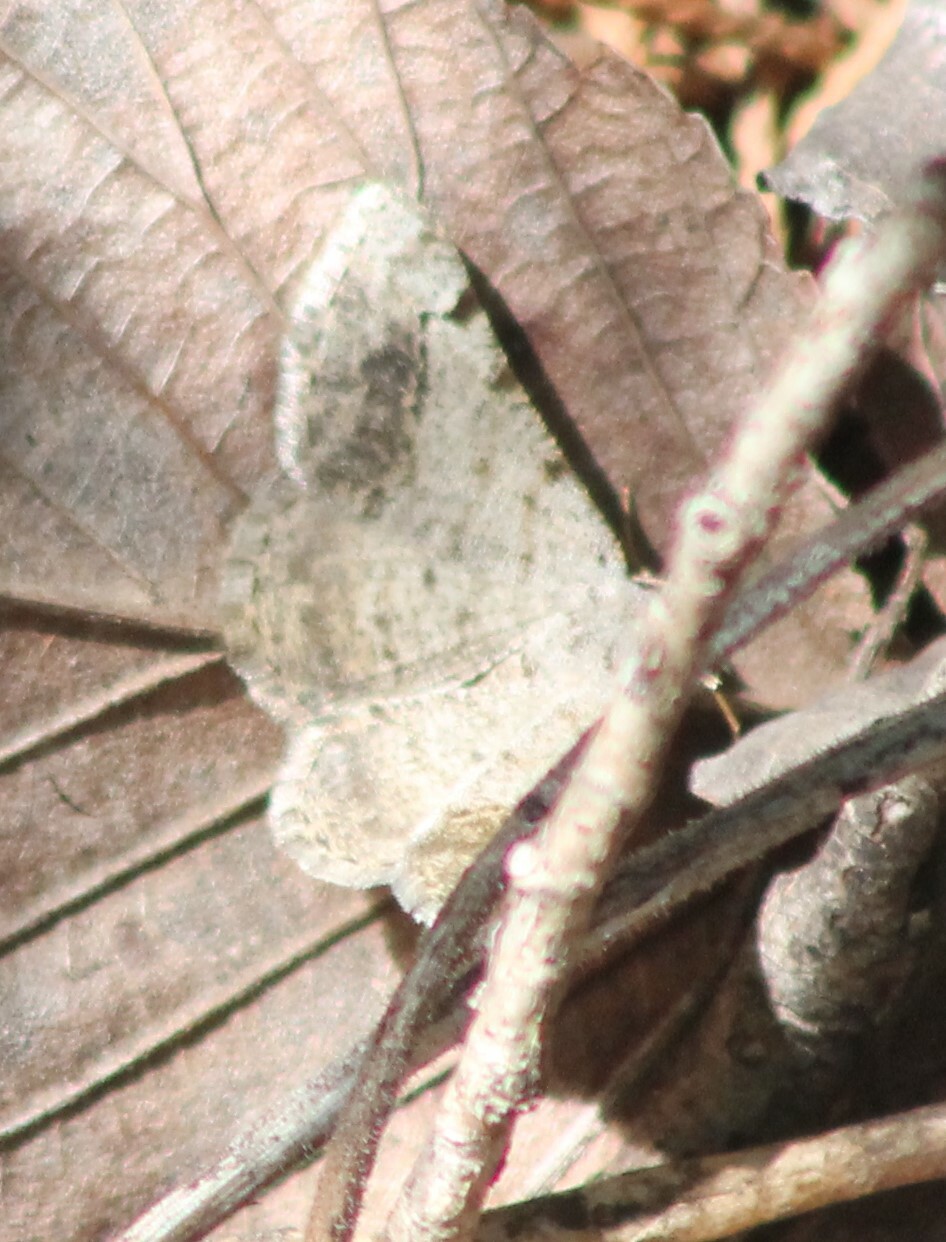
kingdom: Animalia
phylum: Arthropoda
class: Insecta
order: Lepidoptera
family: Geometridae
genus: Digrammia
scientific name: Digrammia ocellinata
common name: Faint-spotted angle
